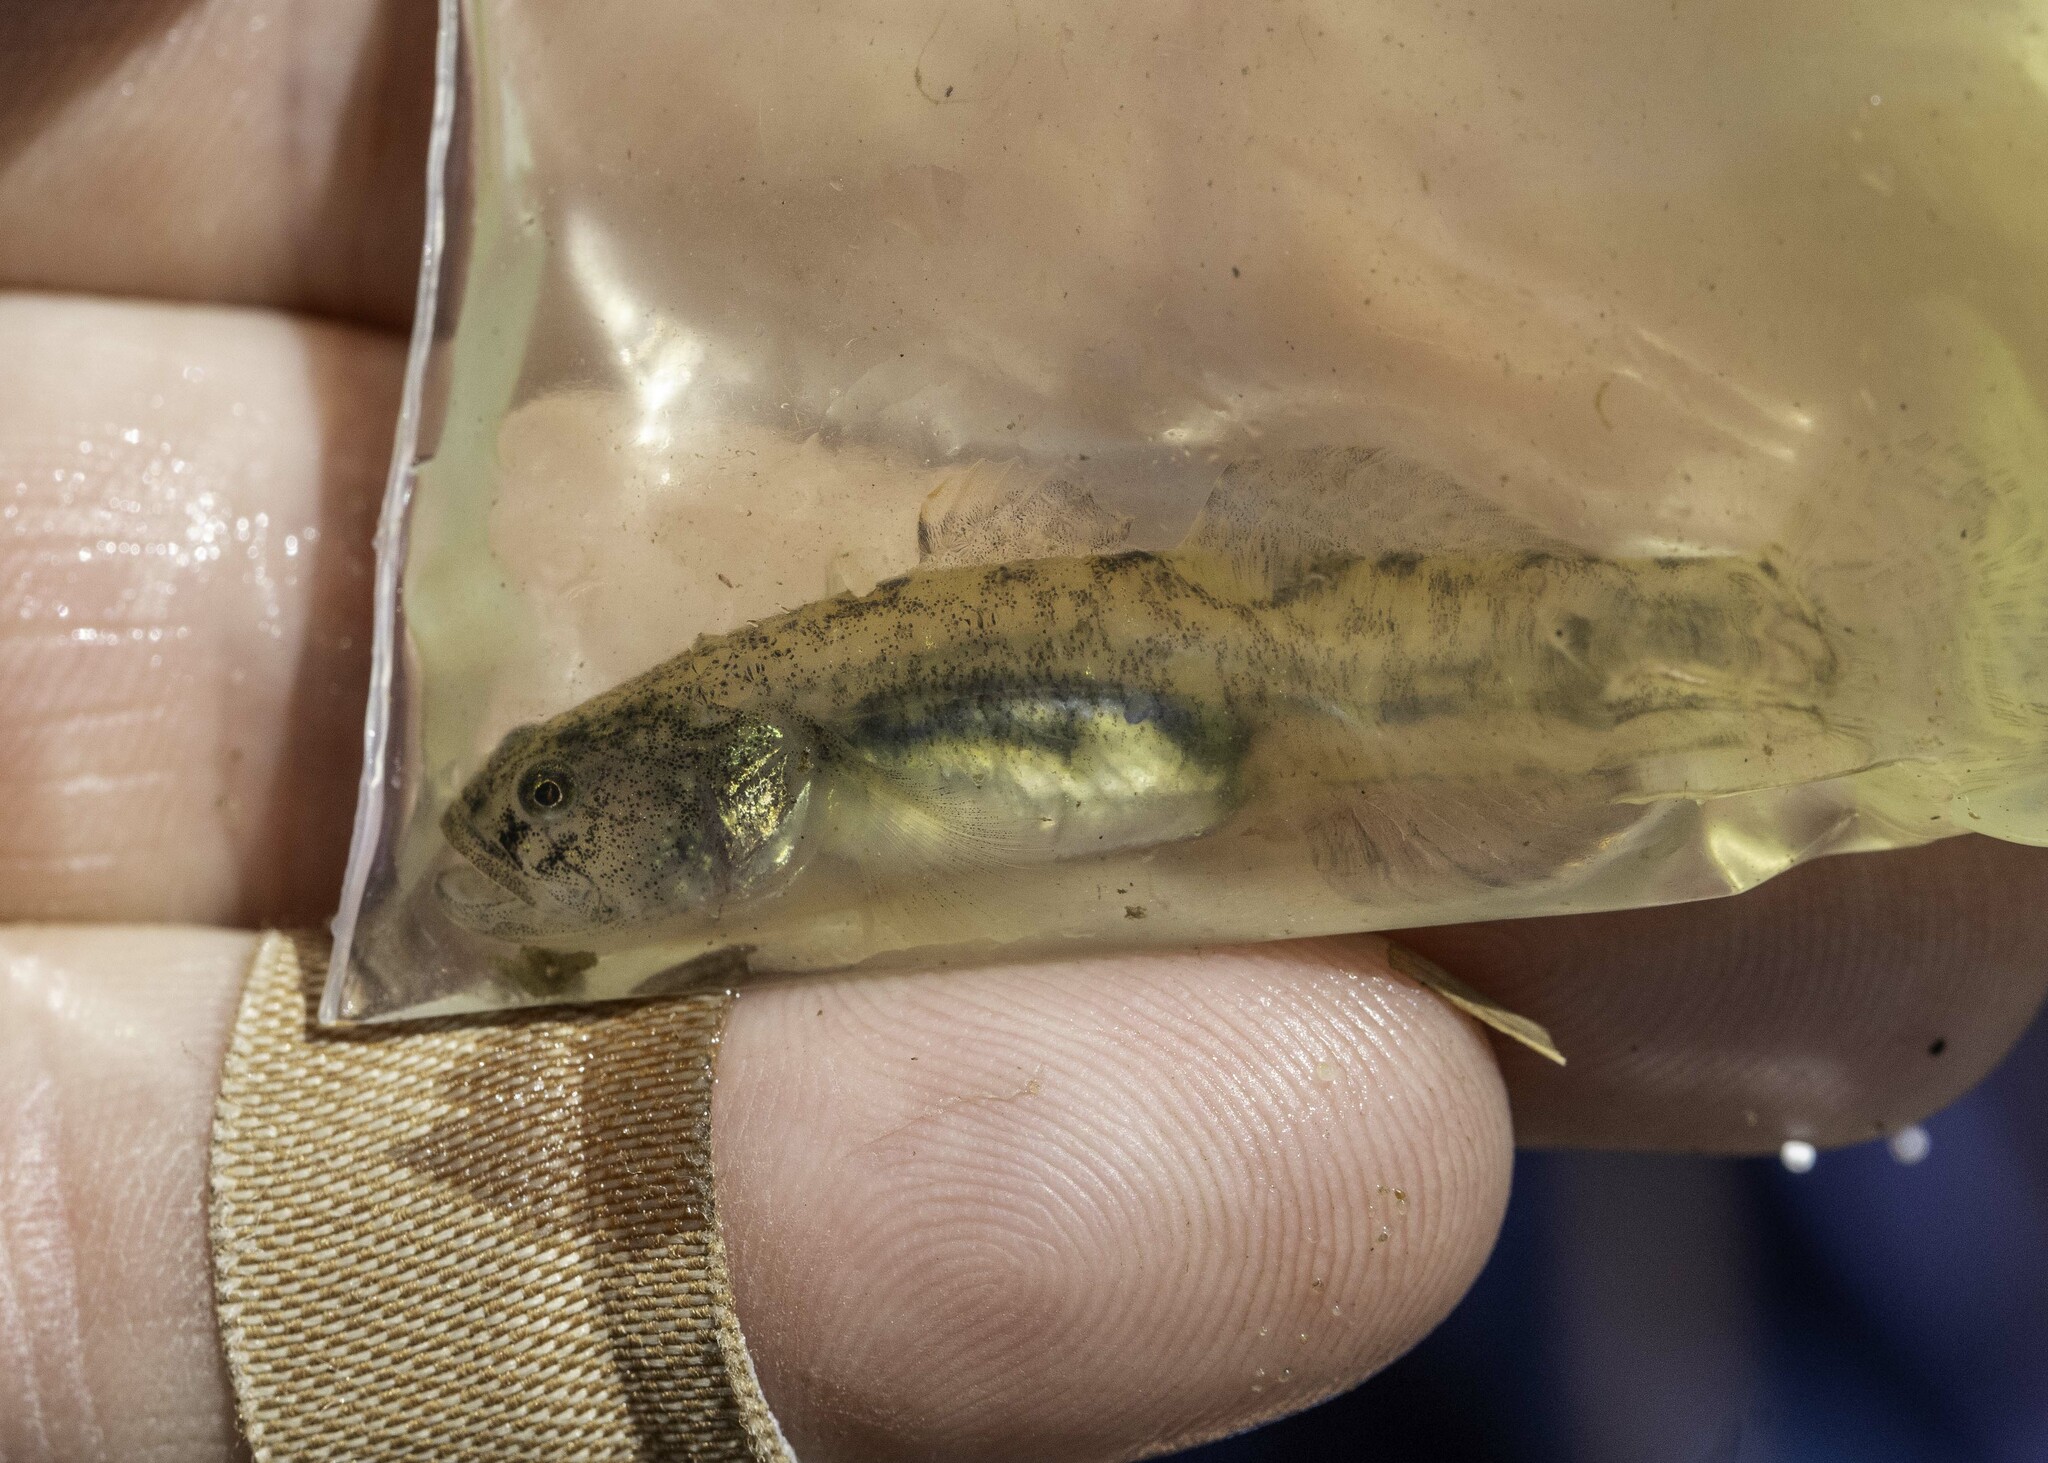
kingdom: Animalia
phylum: Chordata
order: Perciformes
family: Gobiidae
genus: Eucyclogobius
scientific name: Eucyclogobius newberryi
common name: Tidewater goby
